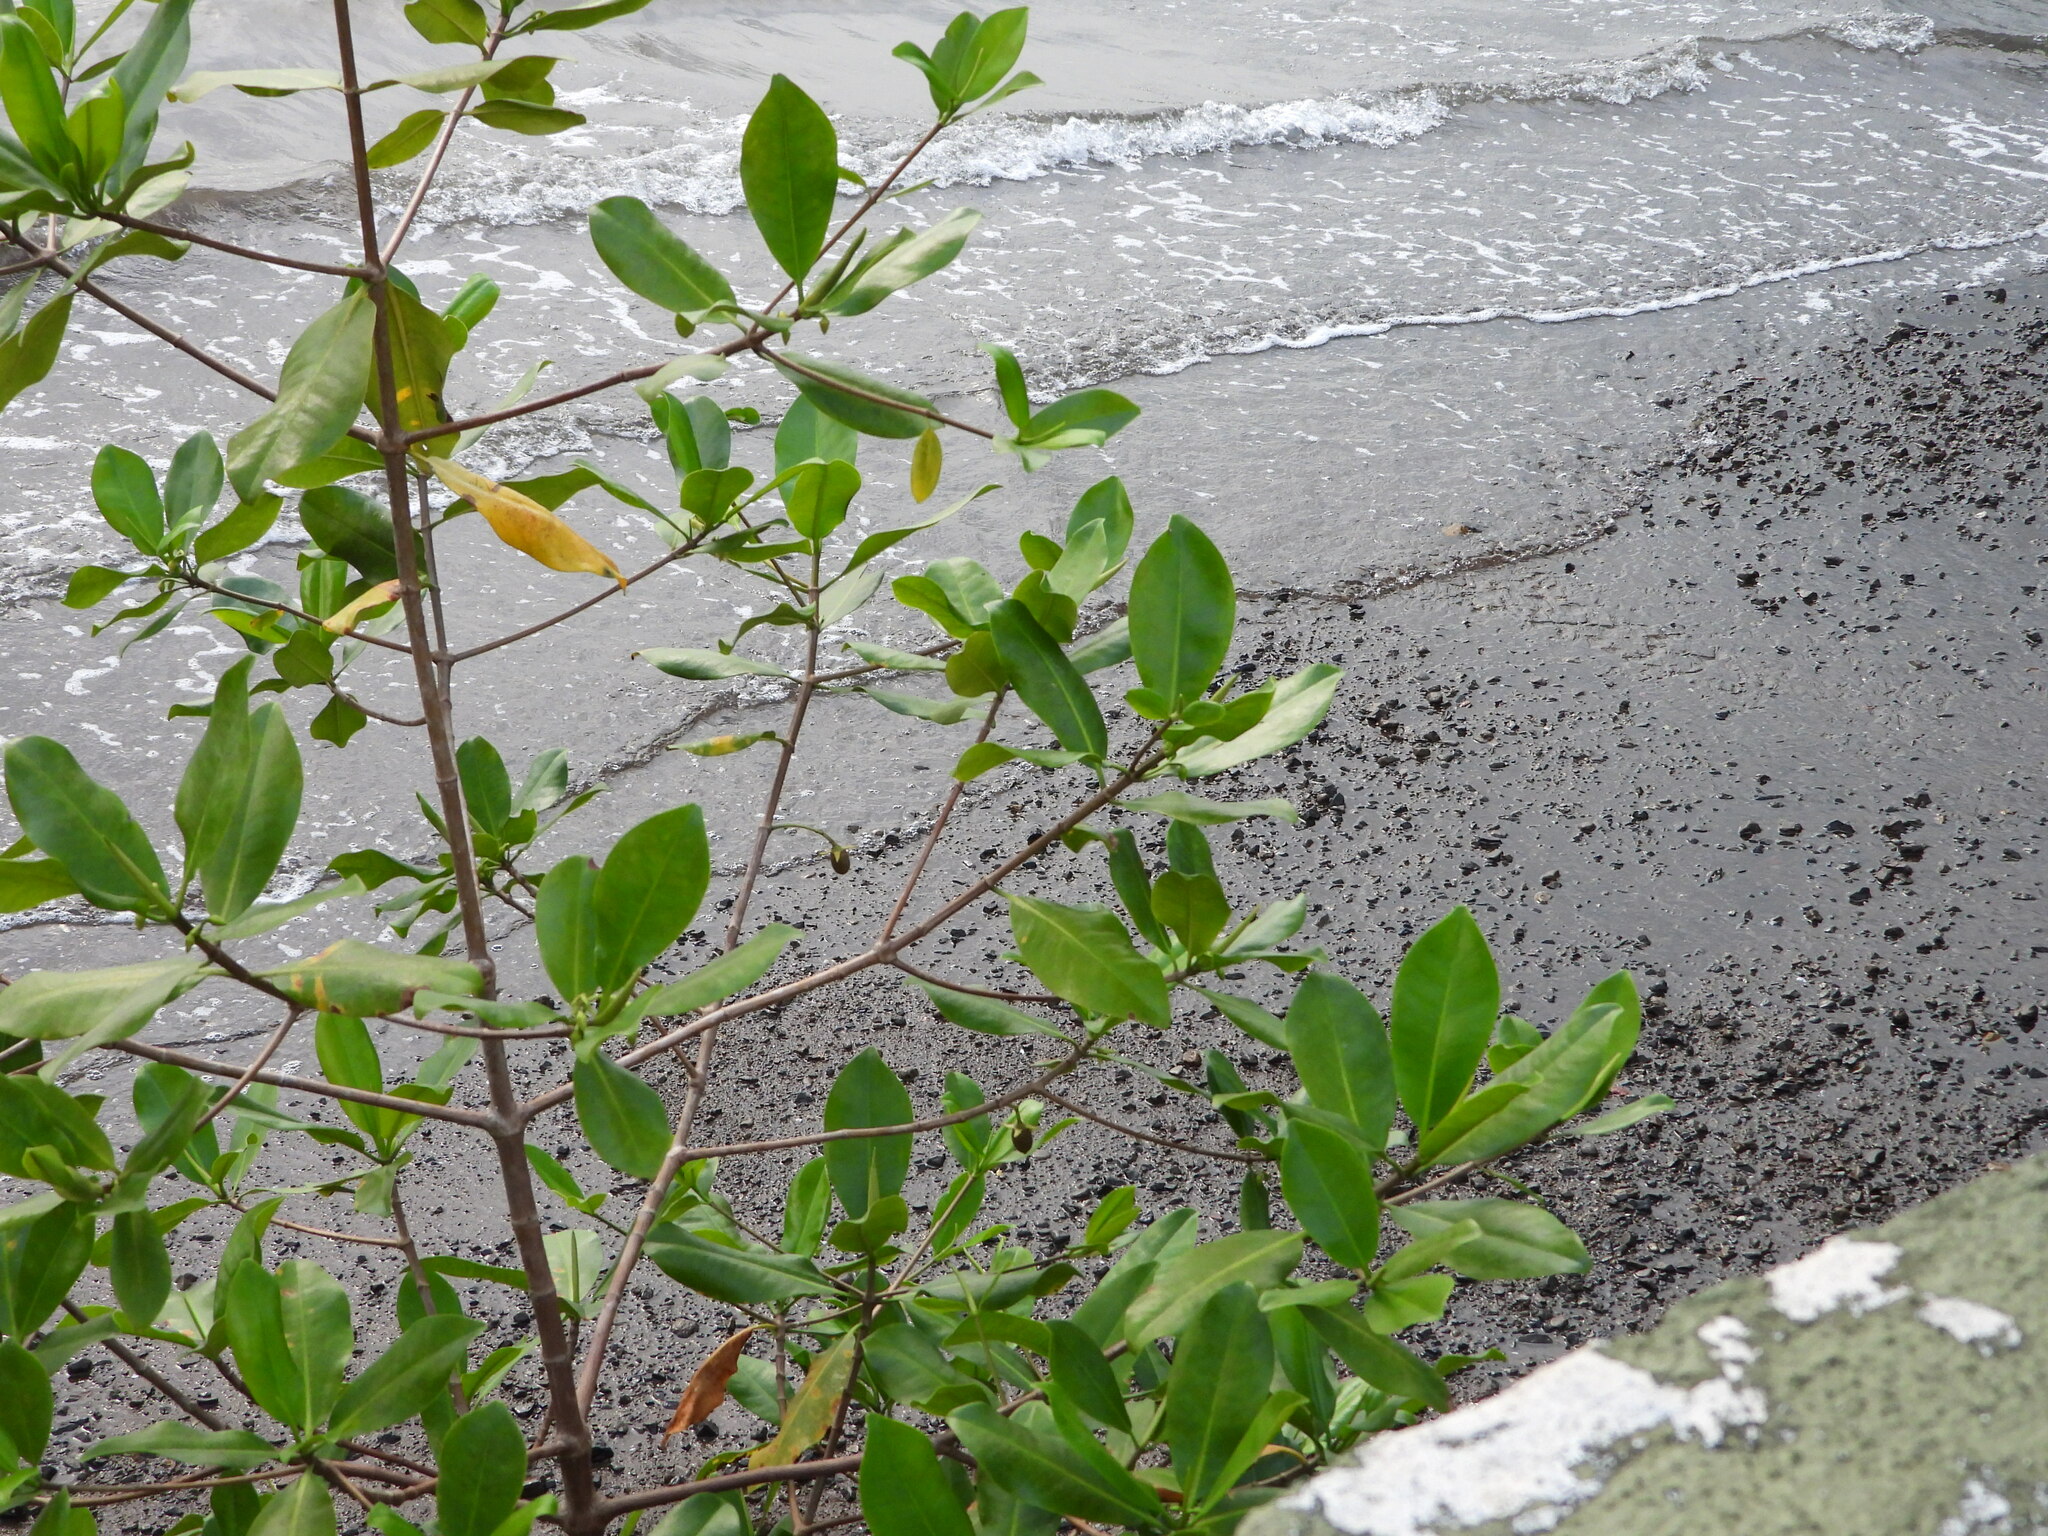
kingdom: Plantae
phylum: Tracheophyta
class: Magnoliopsida
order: Malpighiales
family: Rhizophoraceae
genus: Rhizophora
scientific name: Rhizophora mangle
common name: Red mangrove
